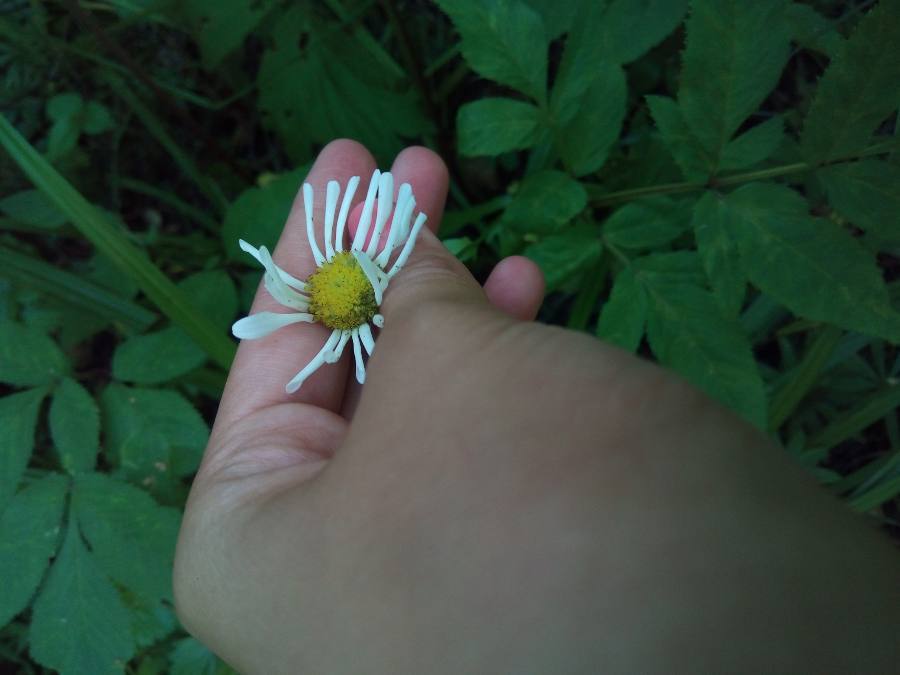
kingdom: Plantae
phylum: Tracheophyta
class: Magnoliopsida
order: Asterales
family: Asteraceae
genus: Leucanthemum
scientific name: Leucanthemum vulgare
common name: Oxeye daisy
